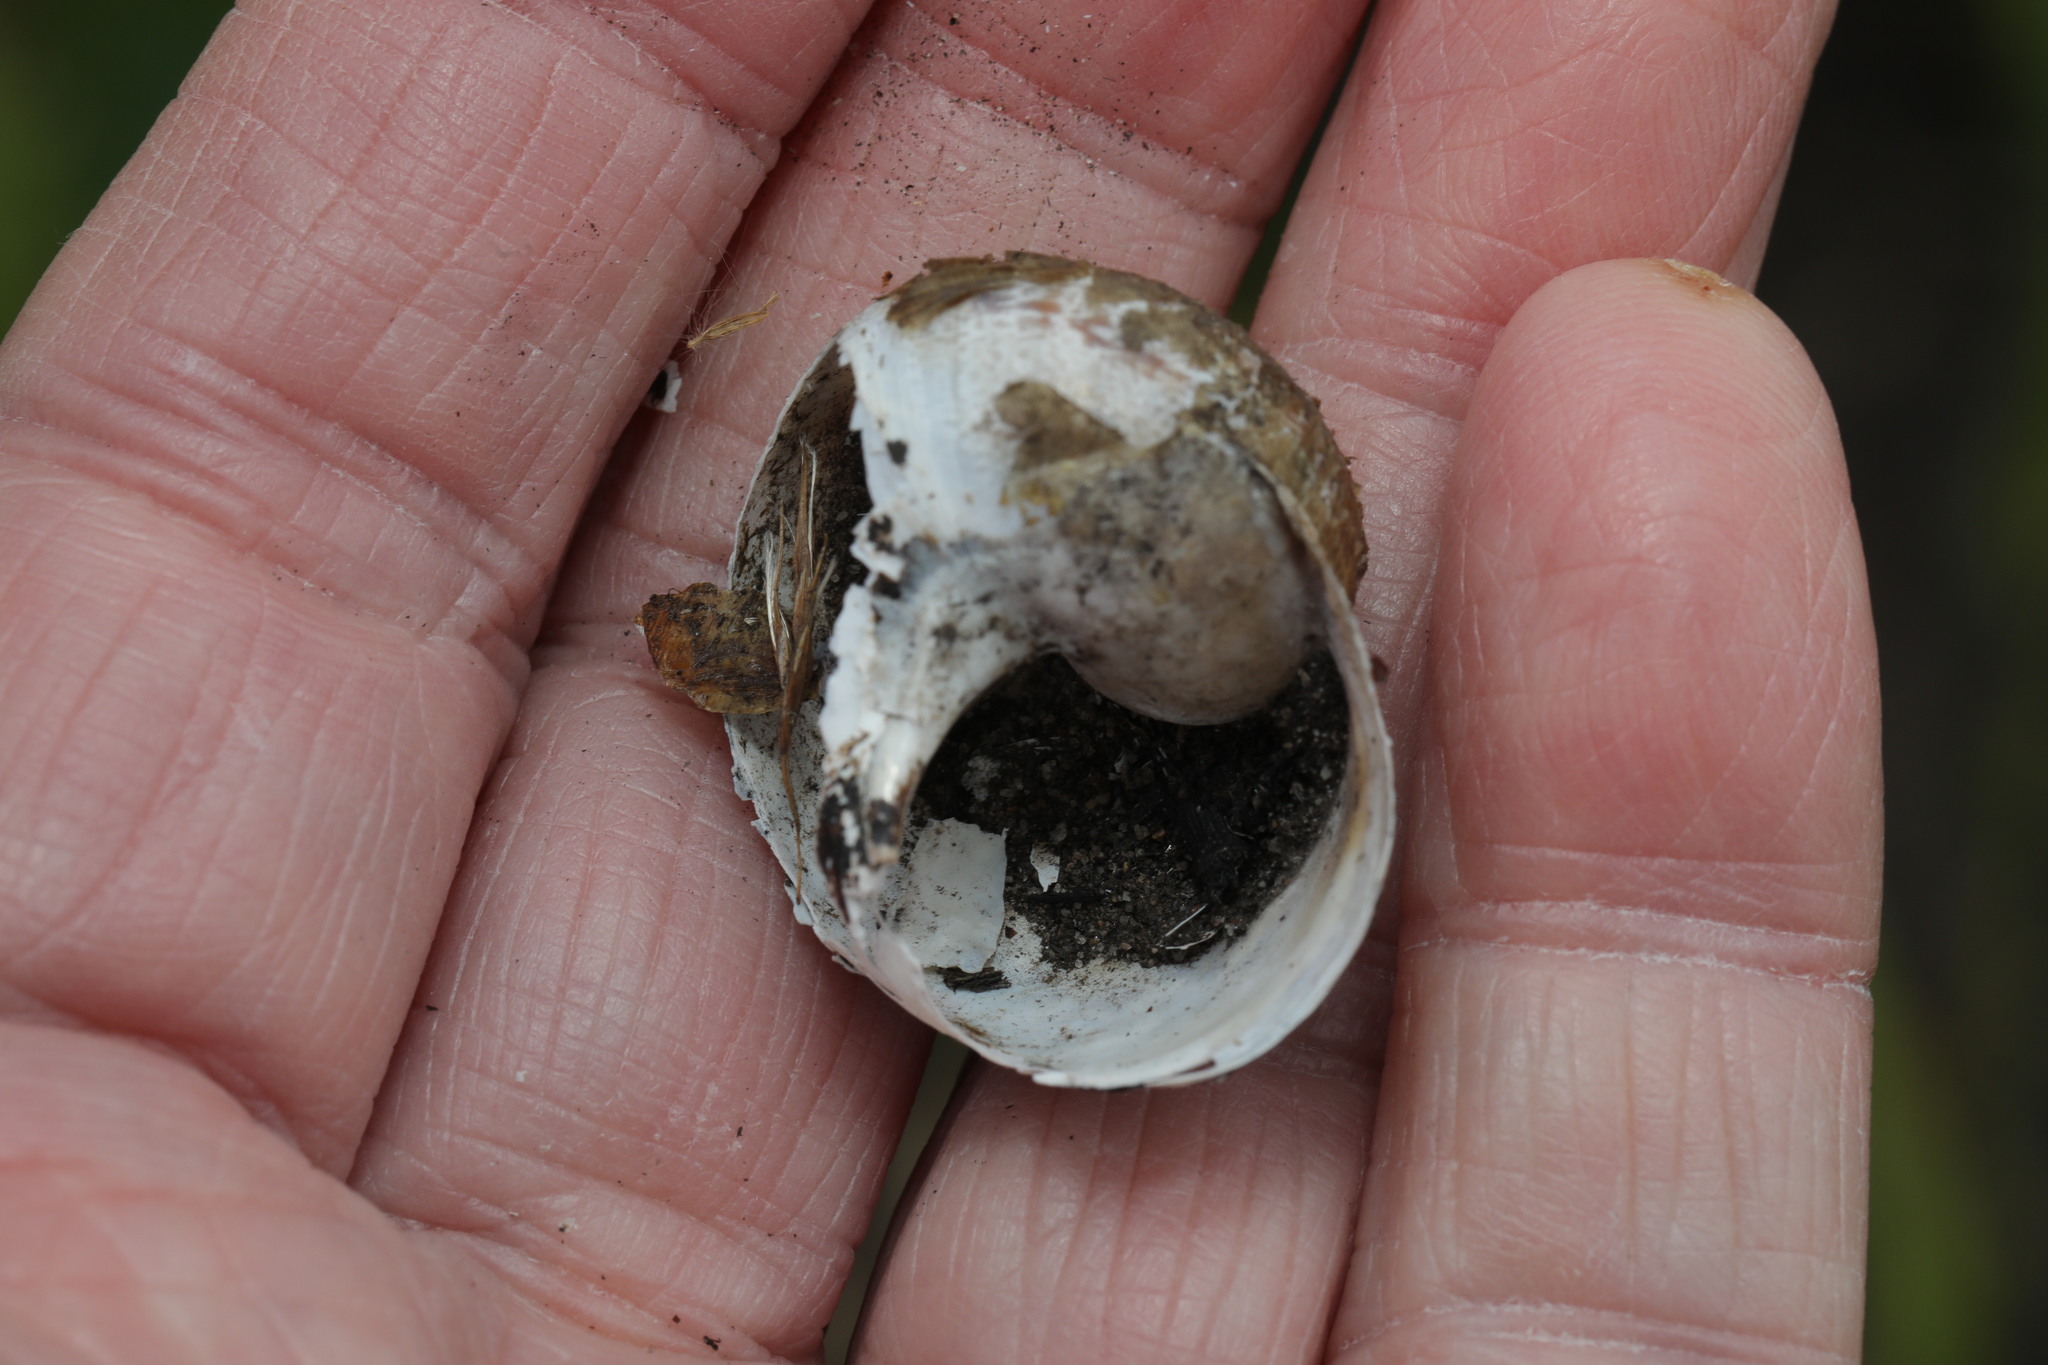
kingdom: Animalia
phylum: Mollusca
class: Gastropoda
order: Stylommatophora
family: Helicidae
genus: Cornu
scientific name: Cornu aspersum
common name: Brown garden snail
